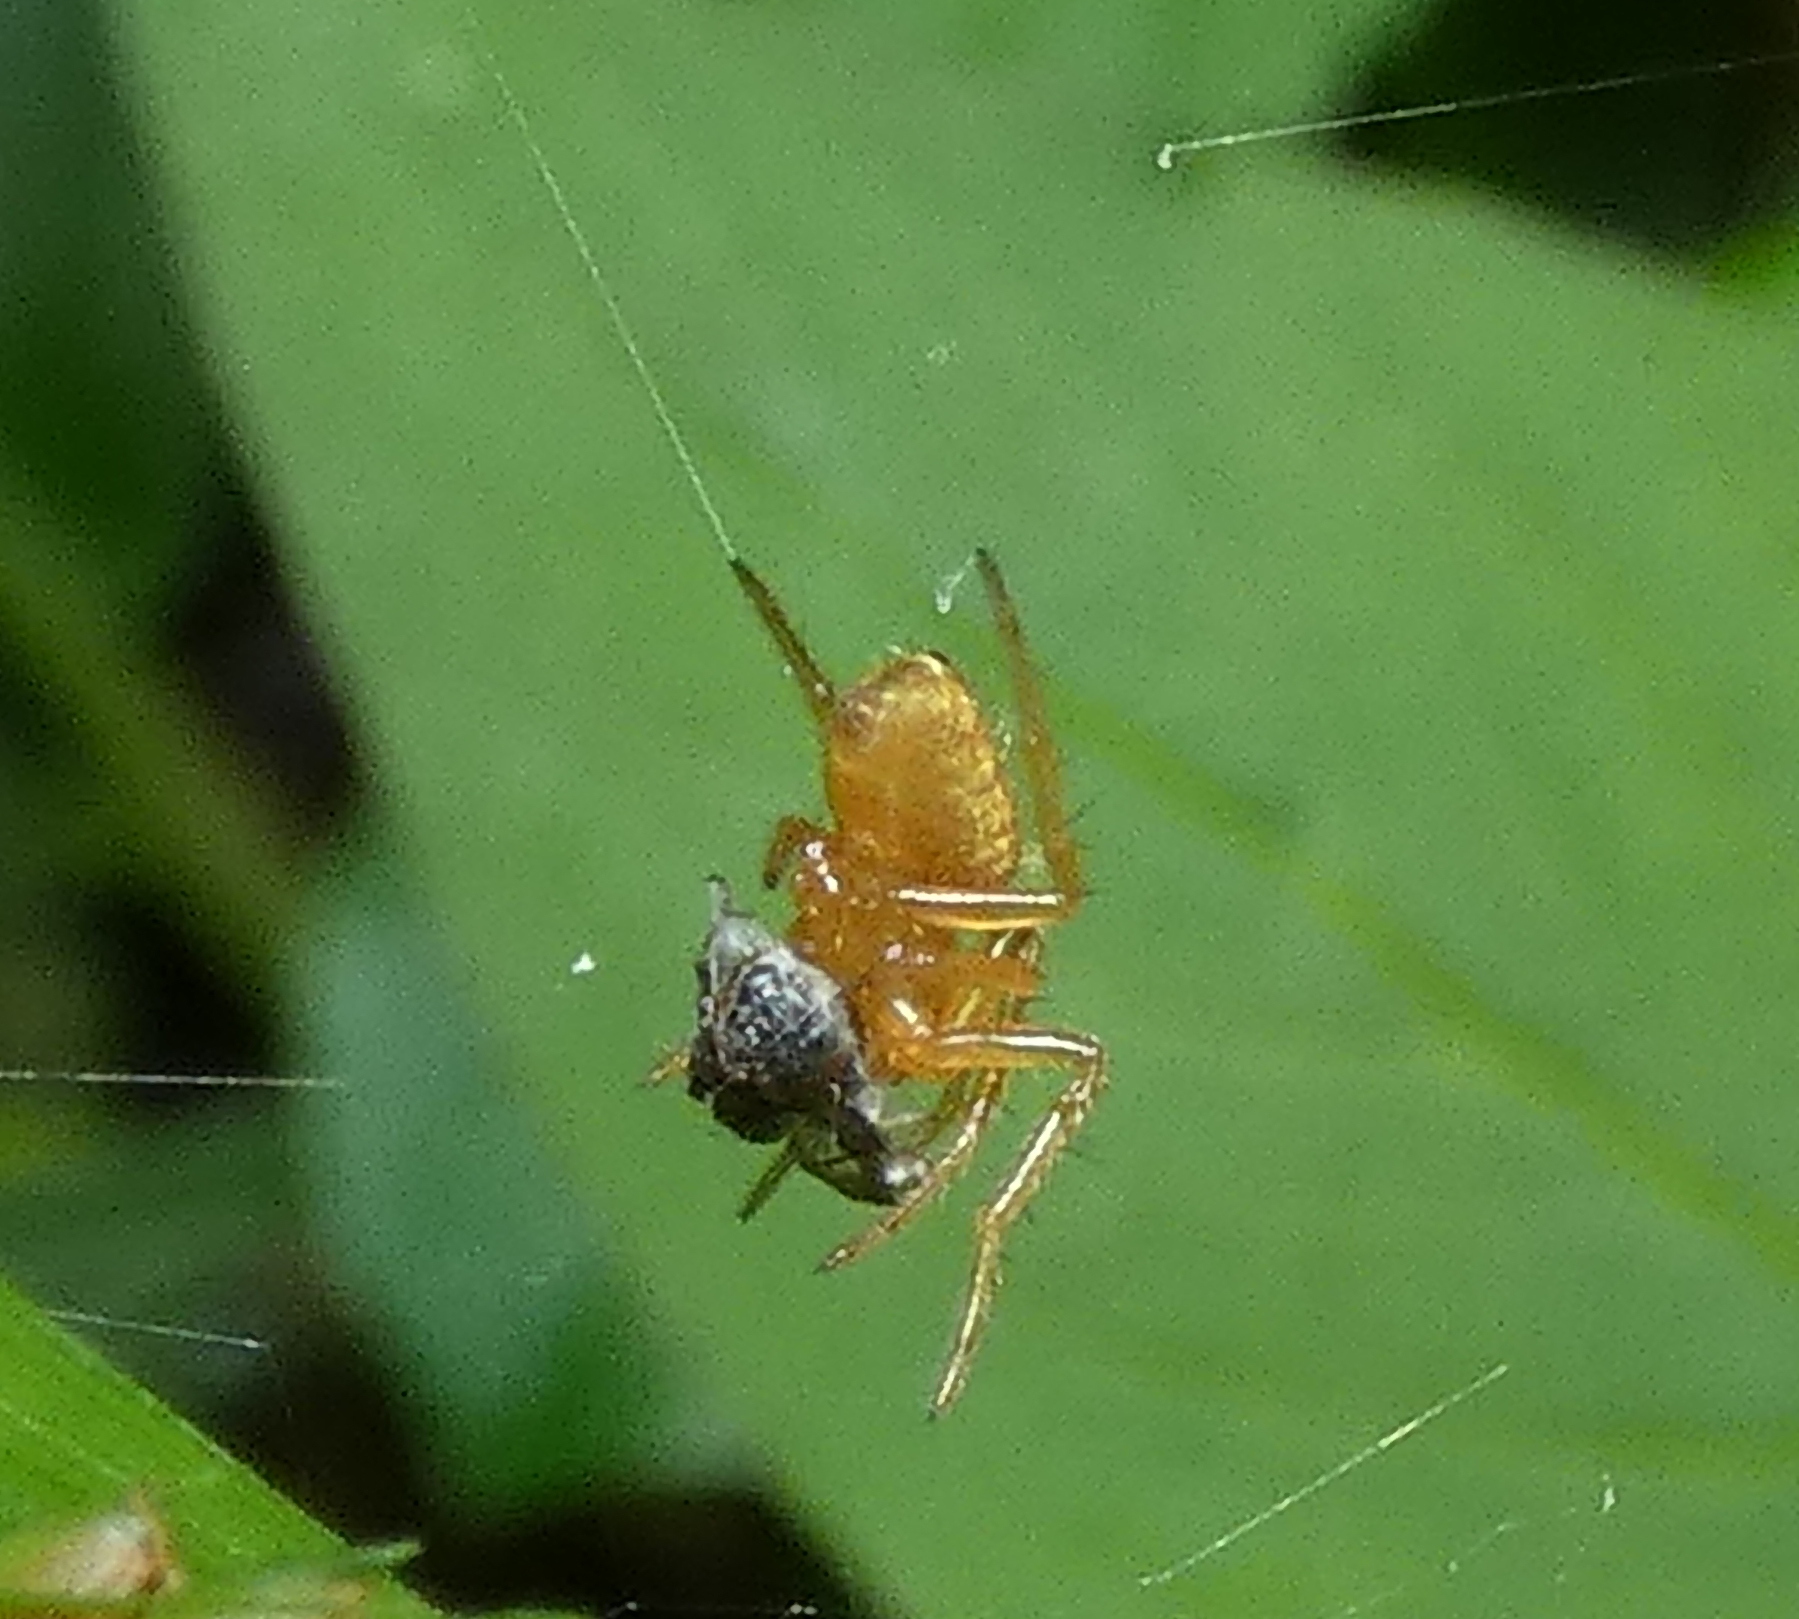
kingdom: Animalia
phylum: Arthropoda
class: Arachnida
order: Araneae
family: Araneidae
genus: Eriophora
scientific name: Eriophora edax
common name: Orb weavers
